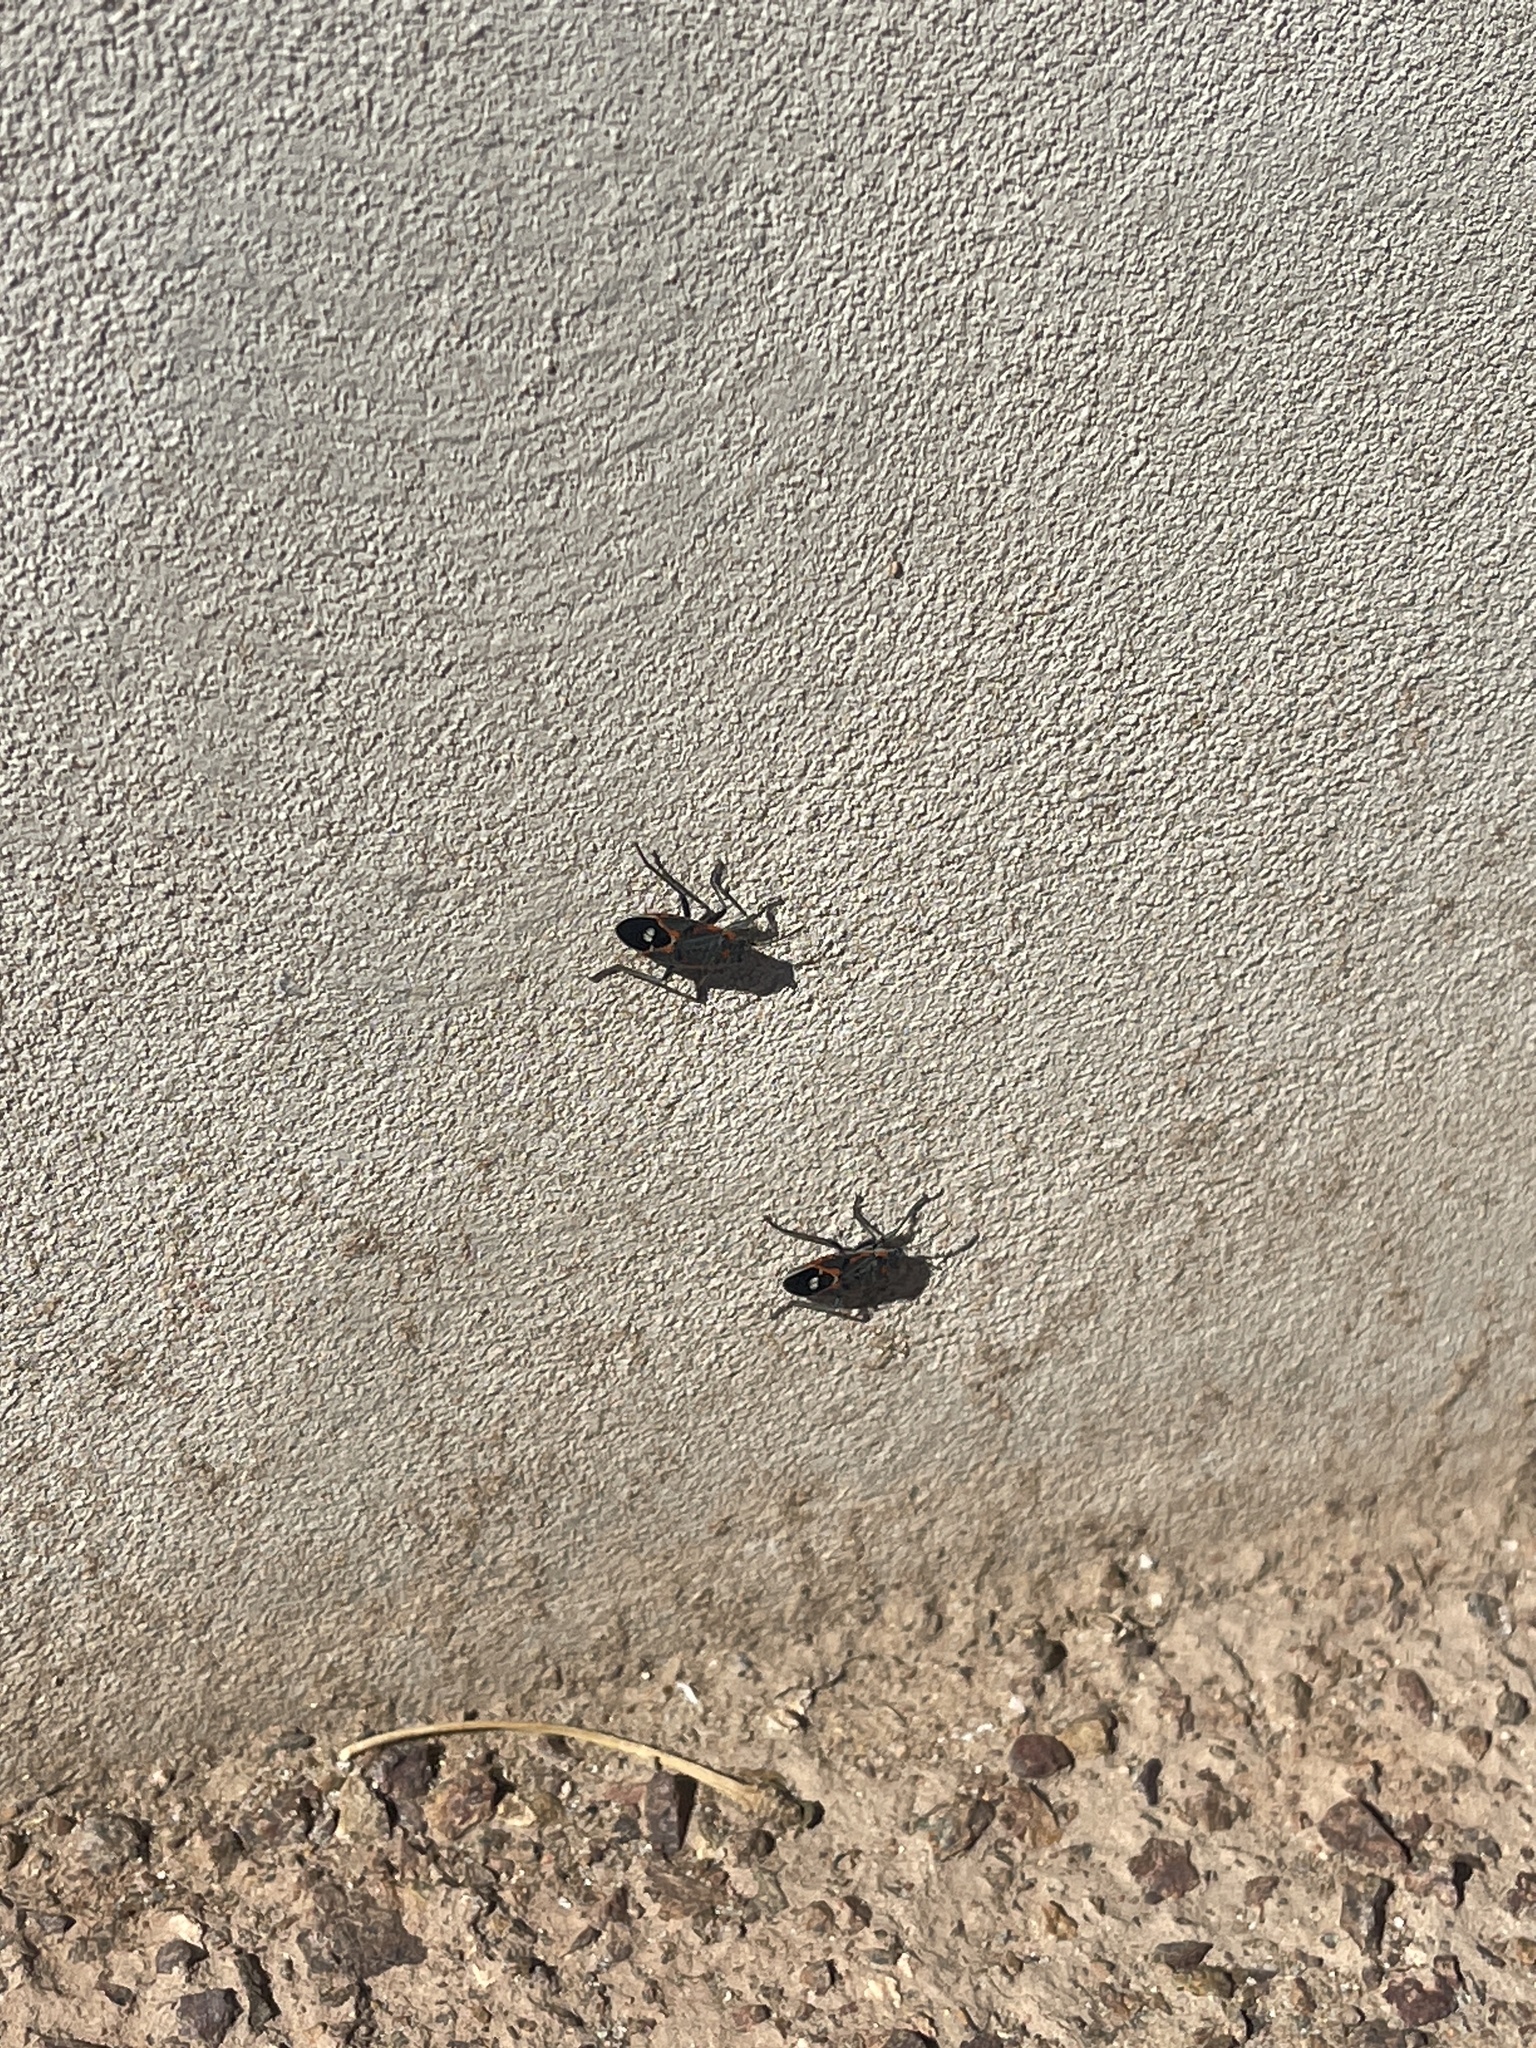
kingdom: Animalia
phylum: Arthropoda
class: Insecta
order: Hemiptera
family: Lygaeidae
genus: Lygaeus
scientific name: Lygaeus kalmii
